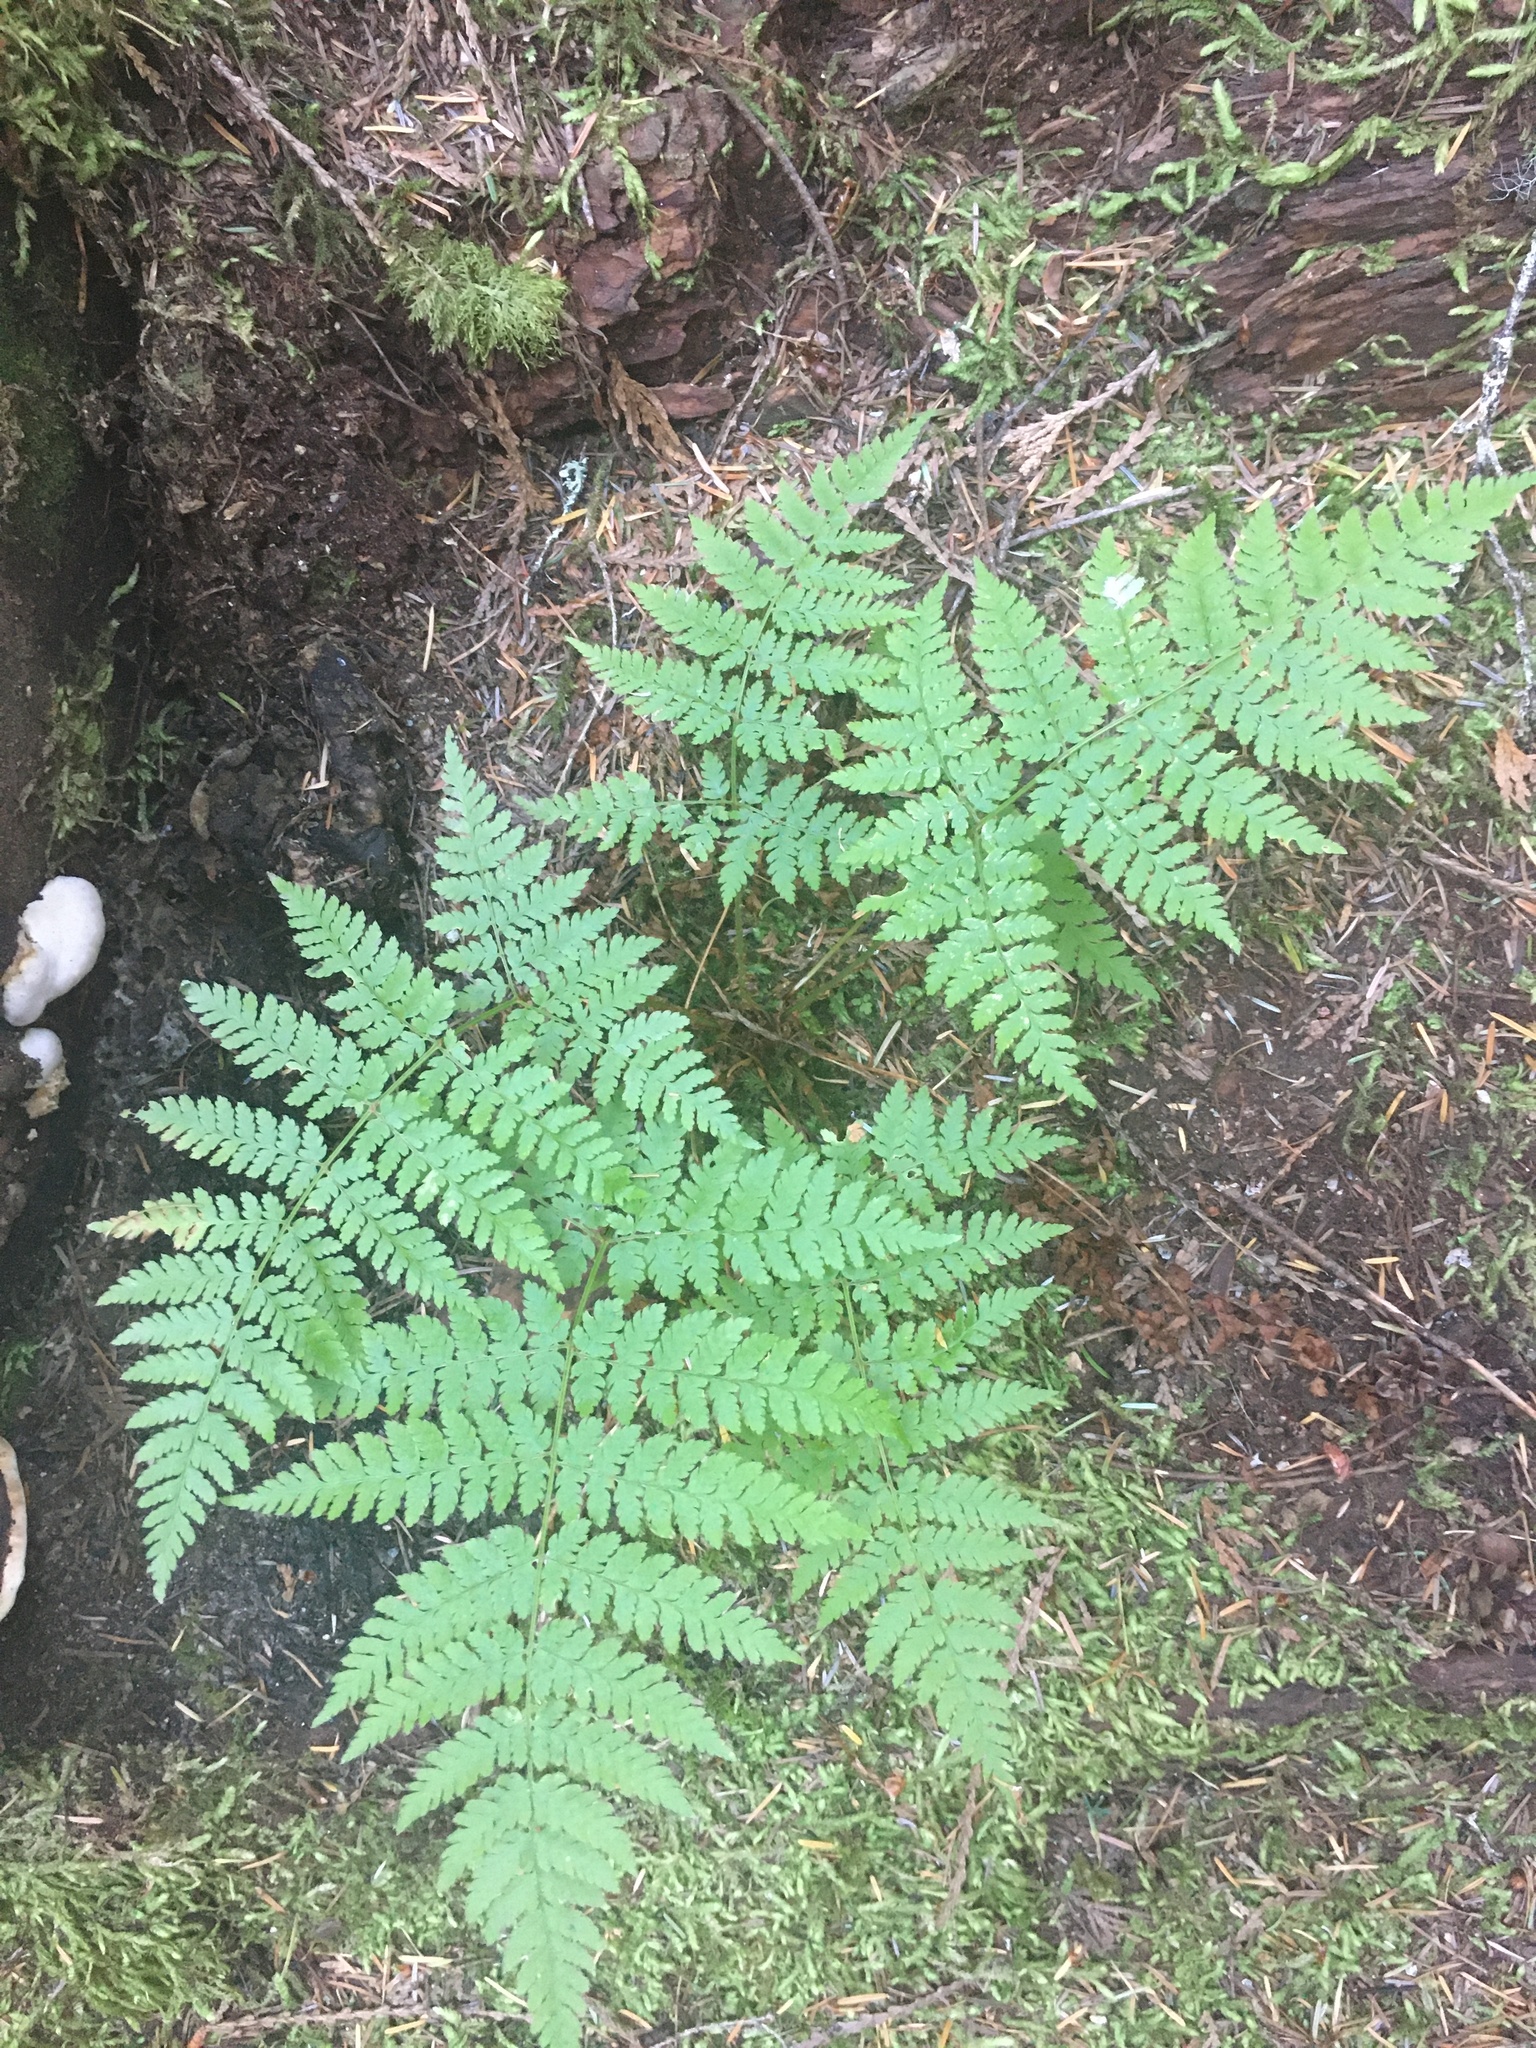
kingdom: Plantae
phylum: Tracheophyta
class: Polypodiopsida
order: Polypodiales
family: Dryopteridaceae
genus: Dryopteris
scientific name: Dryopteris expansa
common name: Northern buckler fern
